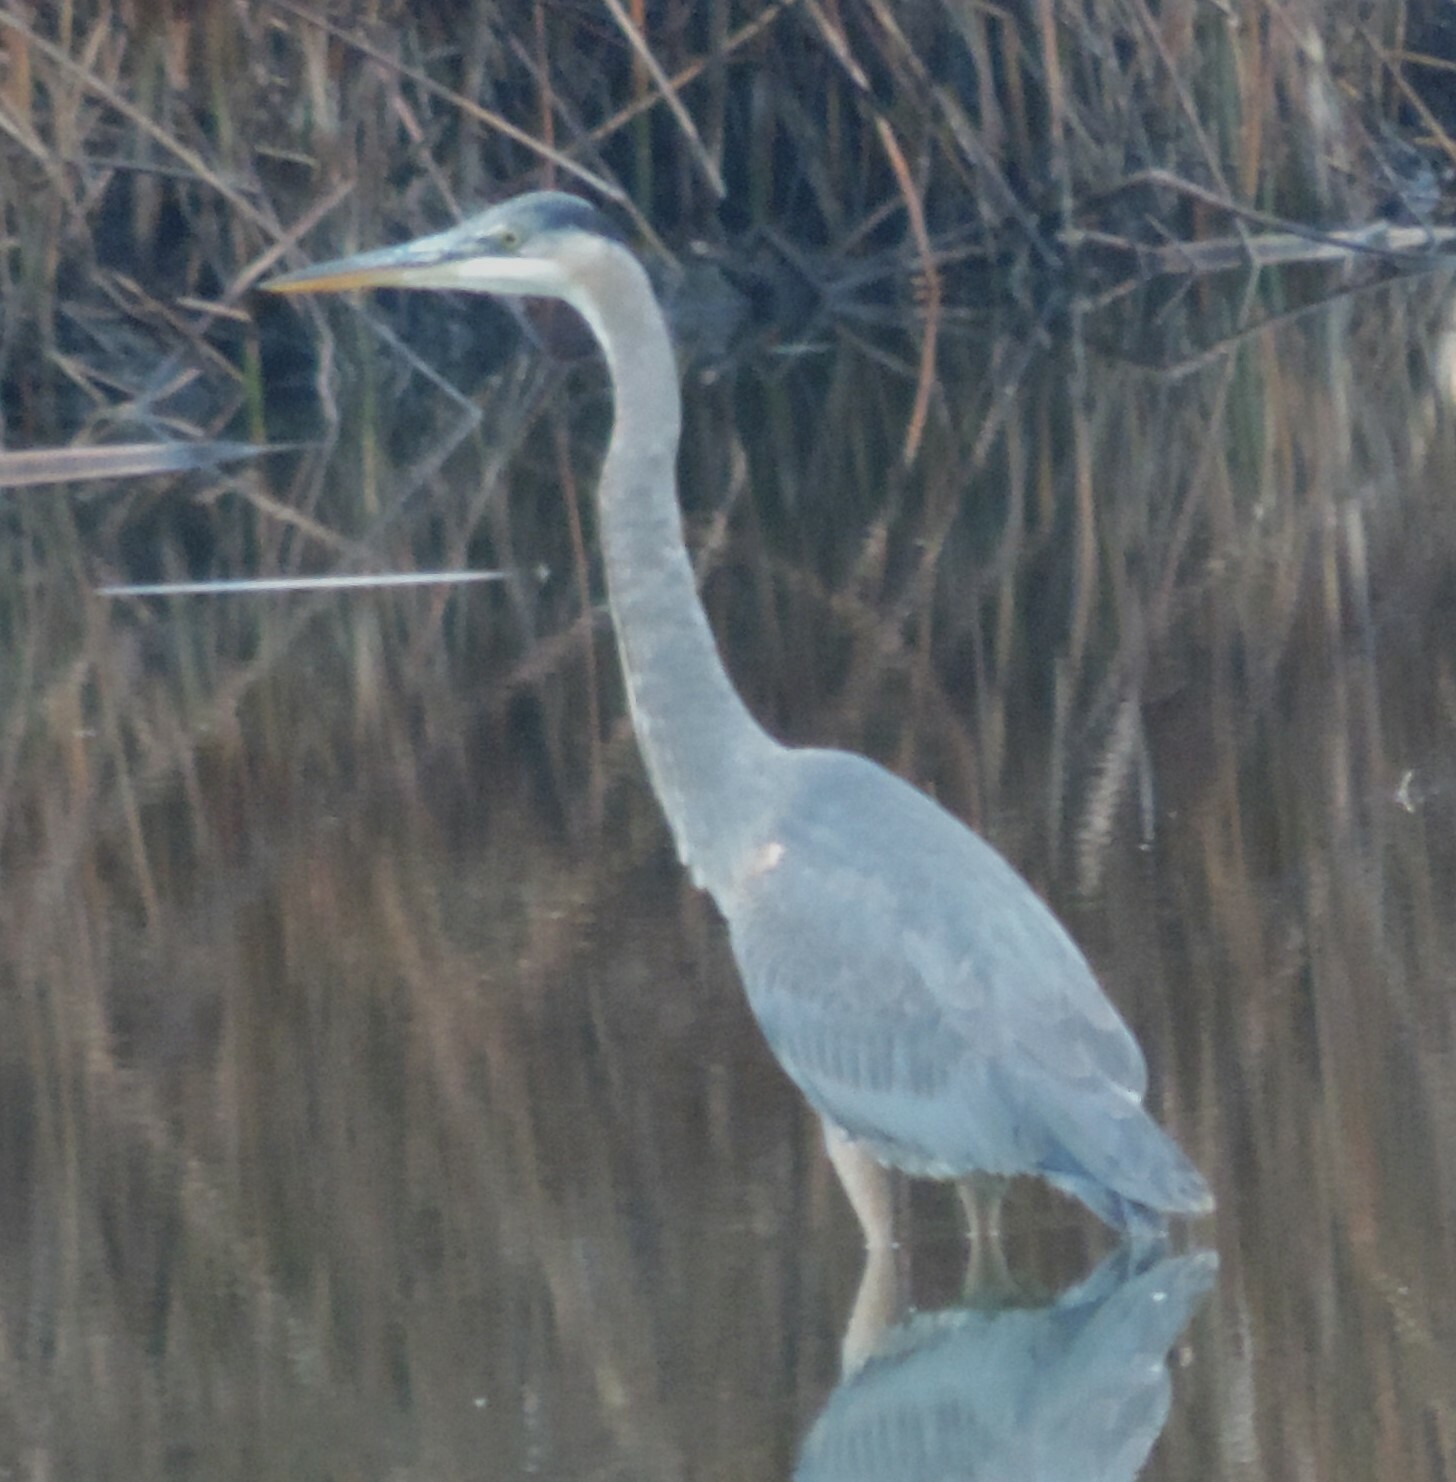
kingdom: Animalia
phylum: Chordata
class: Aves
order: Pelecaniformes
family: Ardeidae
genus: Ardea
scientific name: Ardea herodias
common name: Great blue heron
